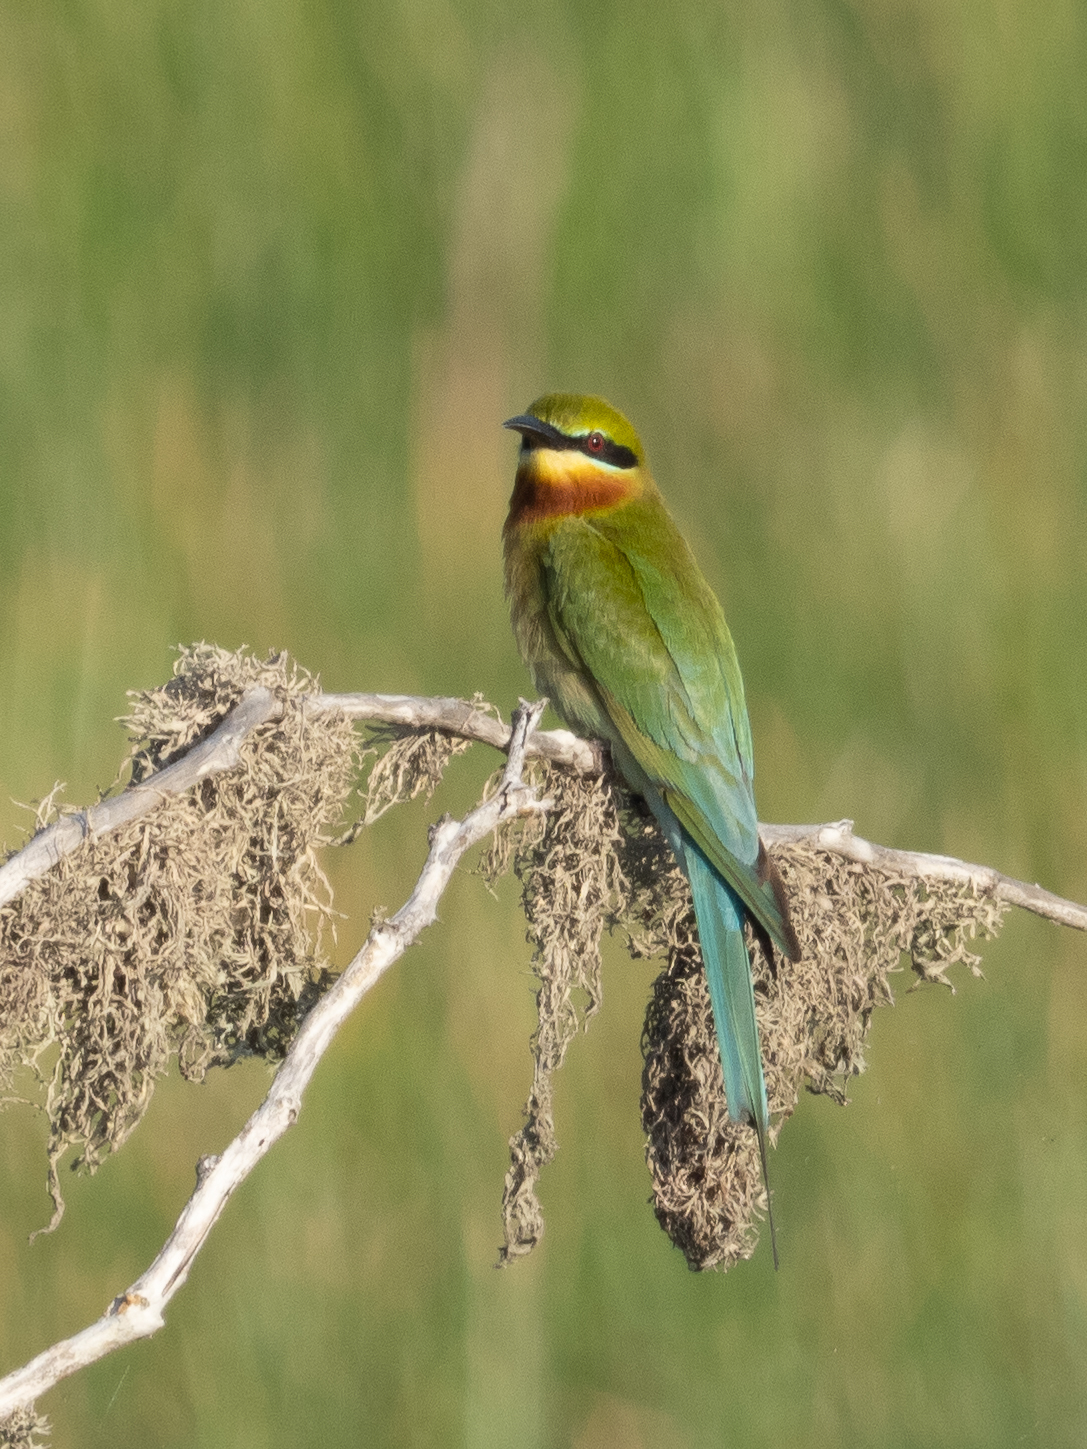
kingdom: Animalia
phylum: Chordata
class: Aves
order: Coraciiformes
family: Meropidae
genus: Merops
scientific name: Merops philippinus
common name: Blue-tailed bee-eater
